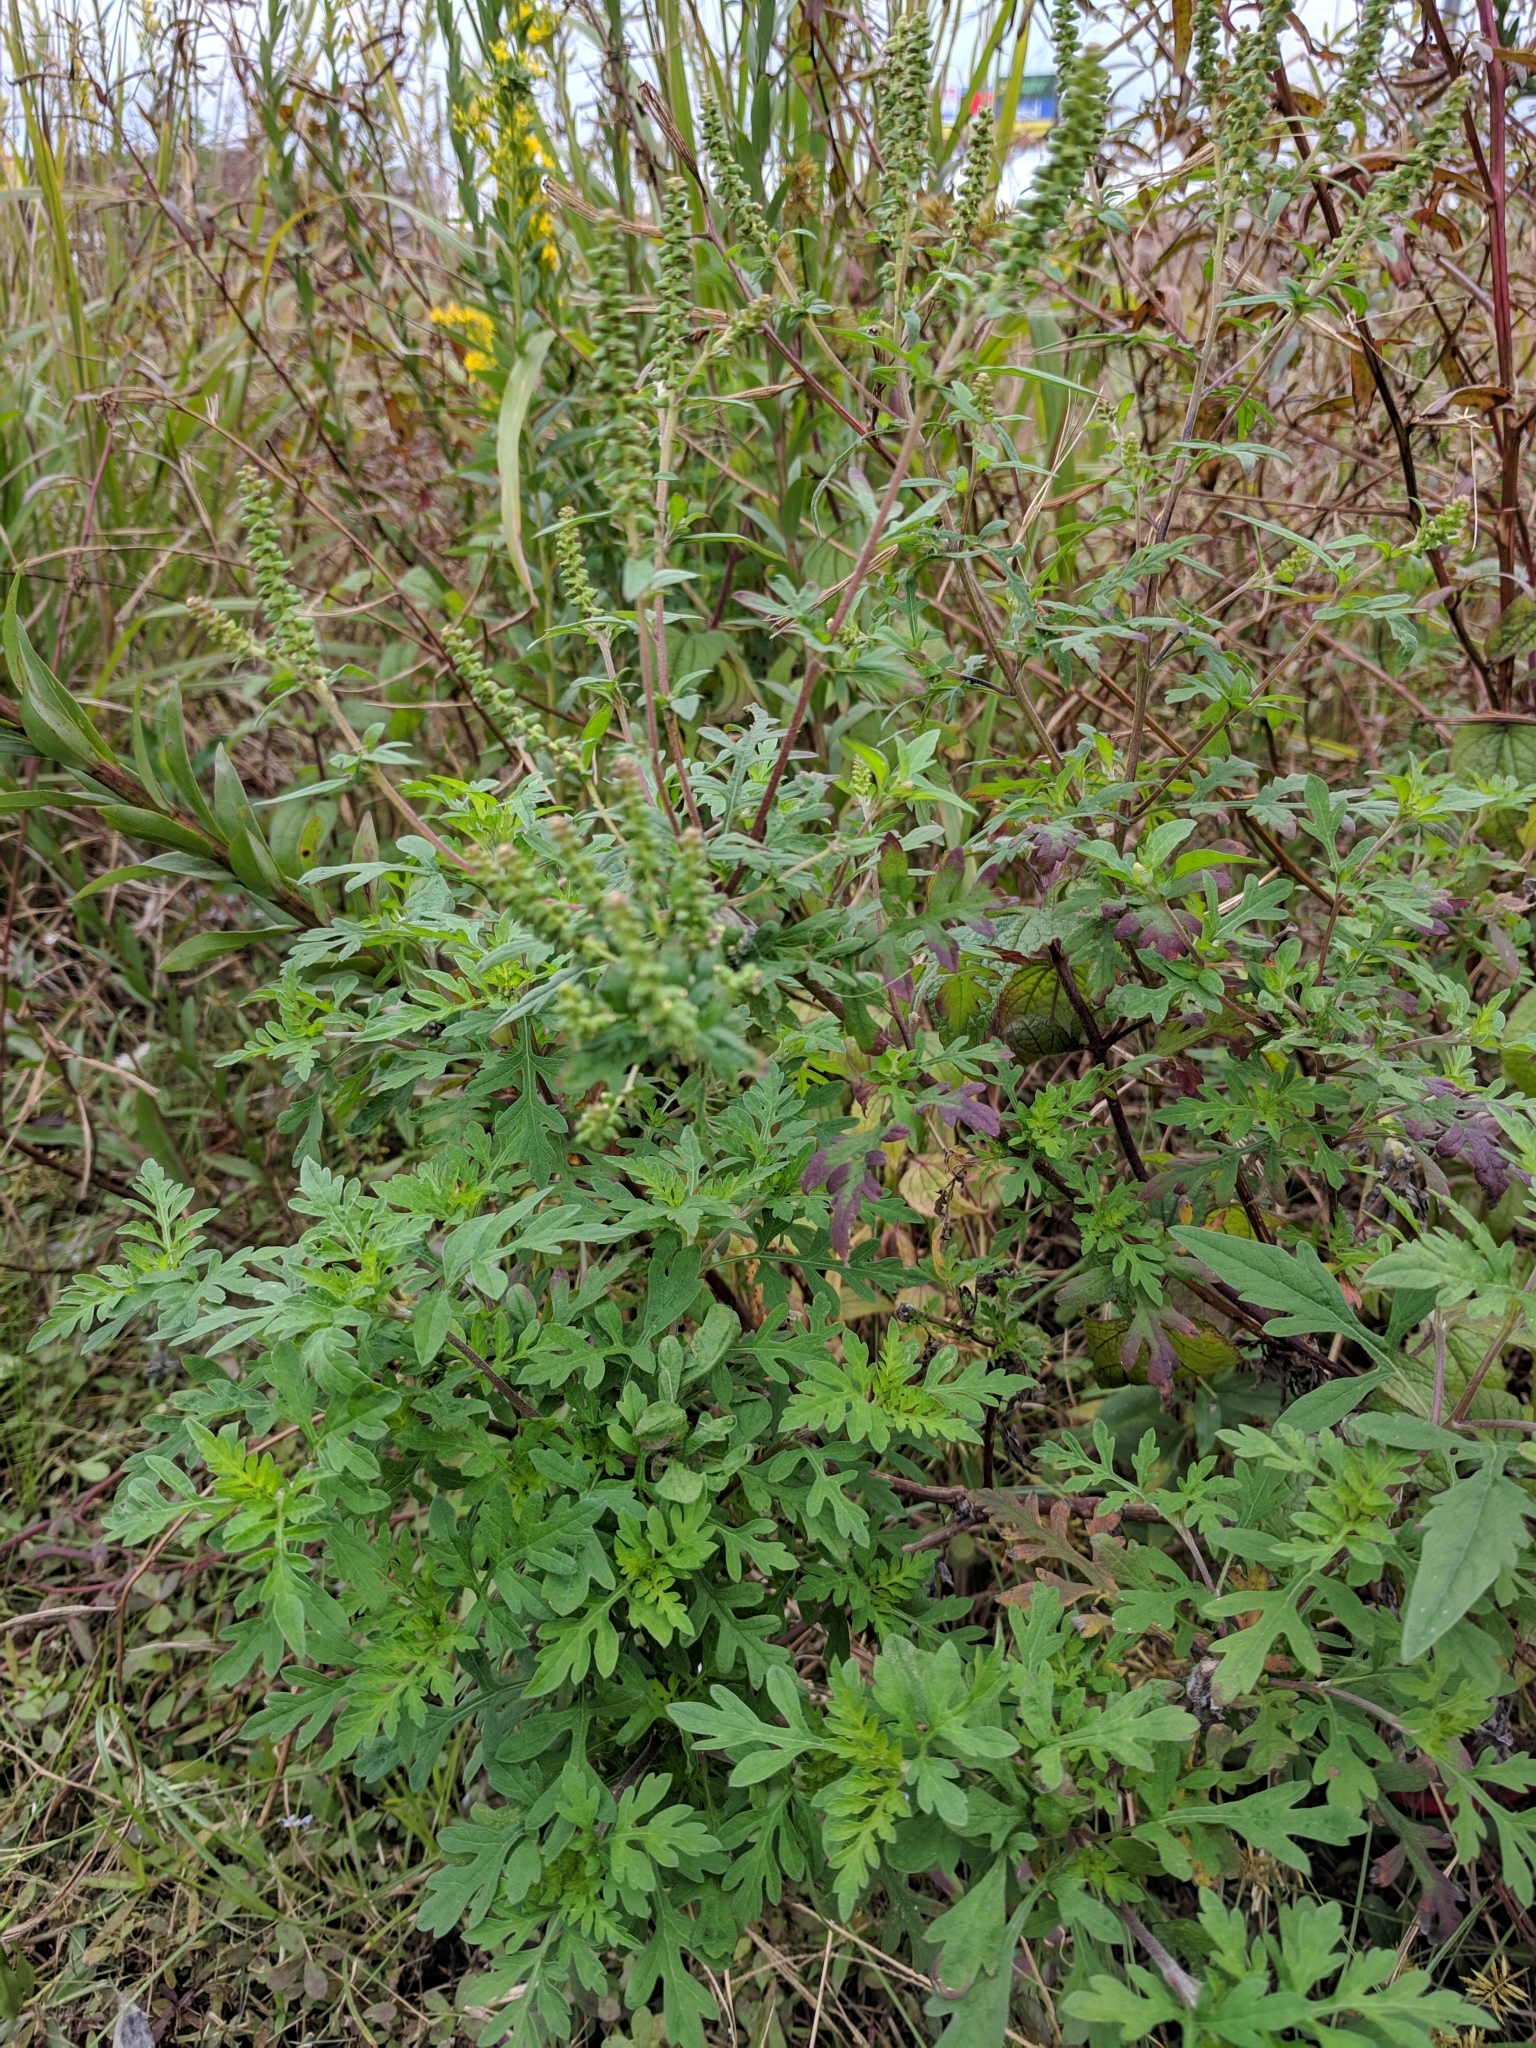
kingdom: Plantae
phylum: Tracheophyta
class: Magnoliopsida
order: Asterales
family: Asteraceae
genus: Ambrosia
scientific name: Ambrosia artemisiifolia
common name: Annual ragweed
